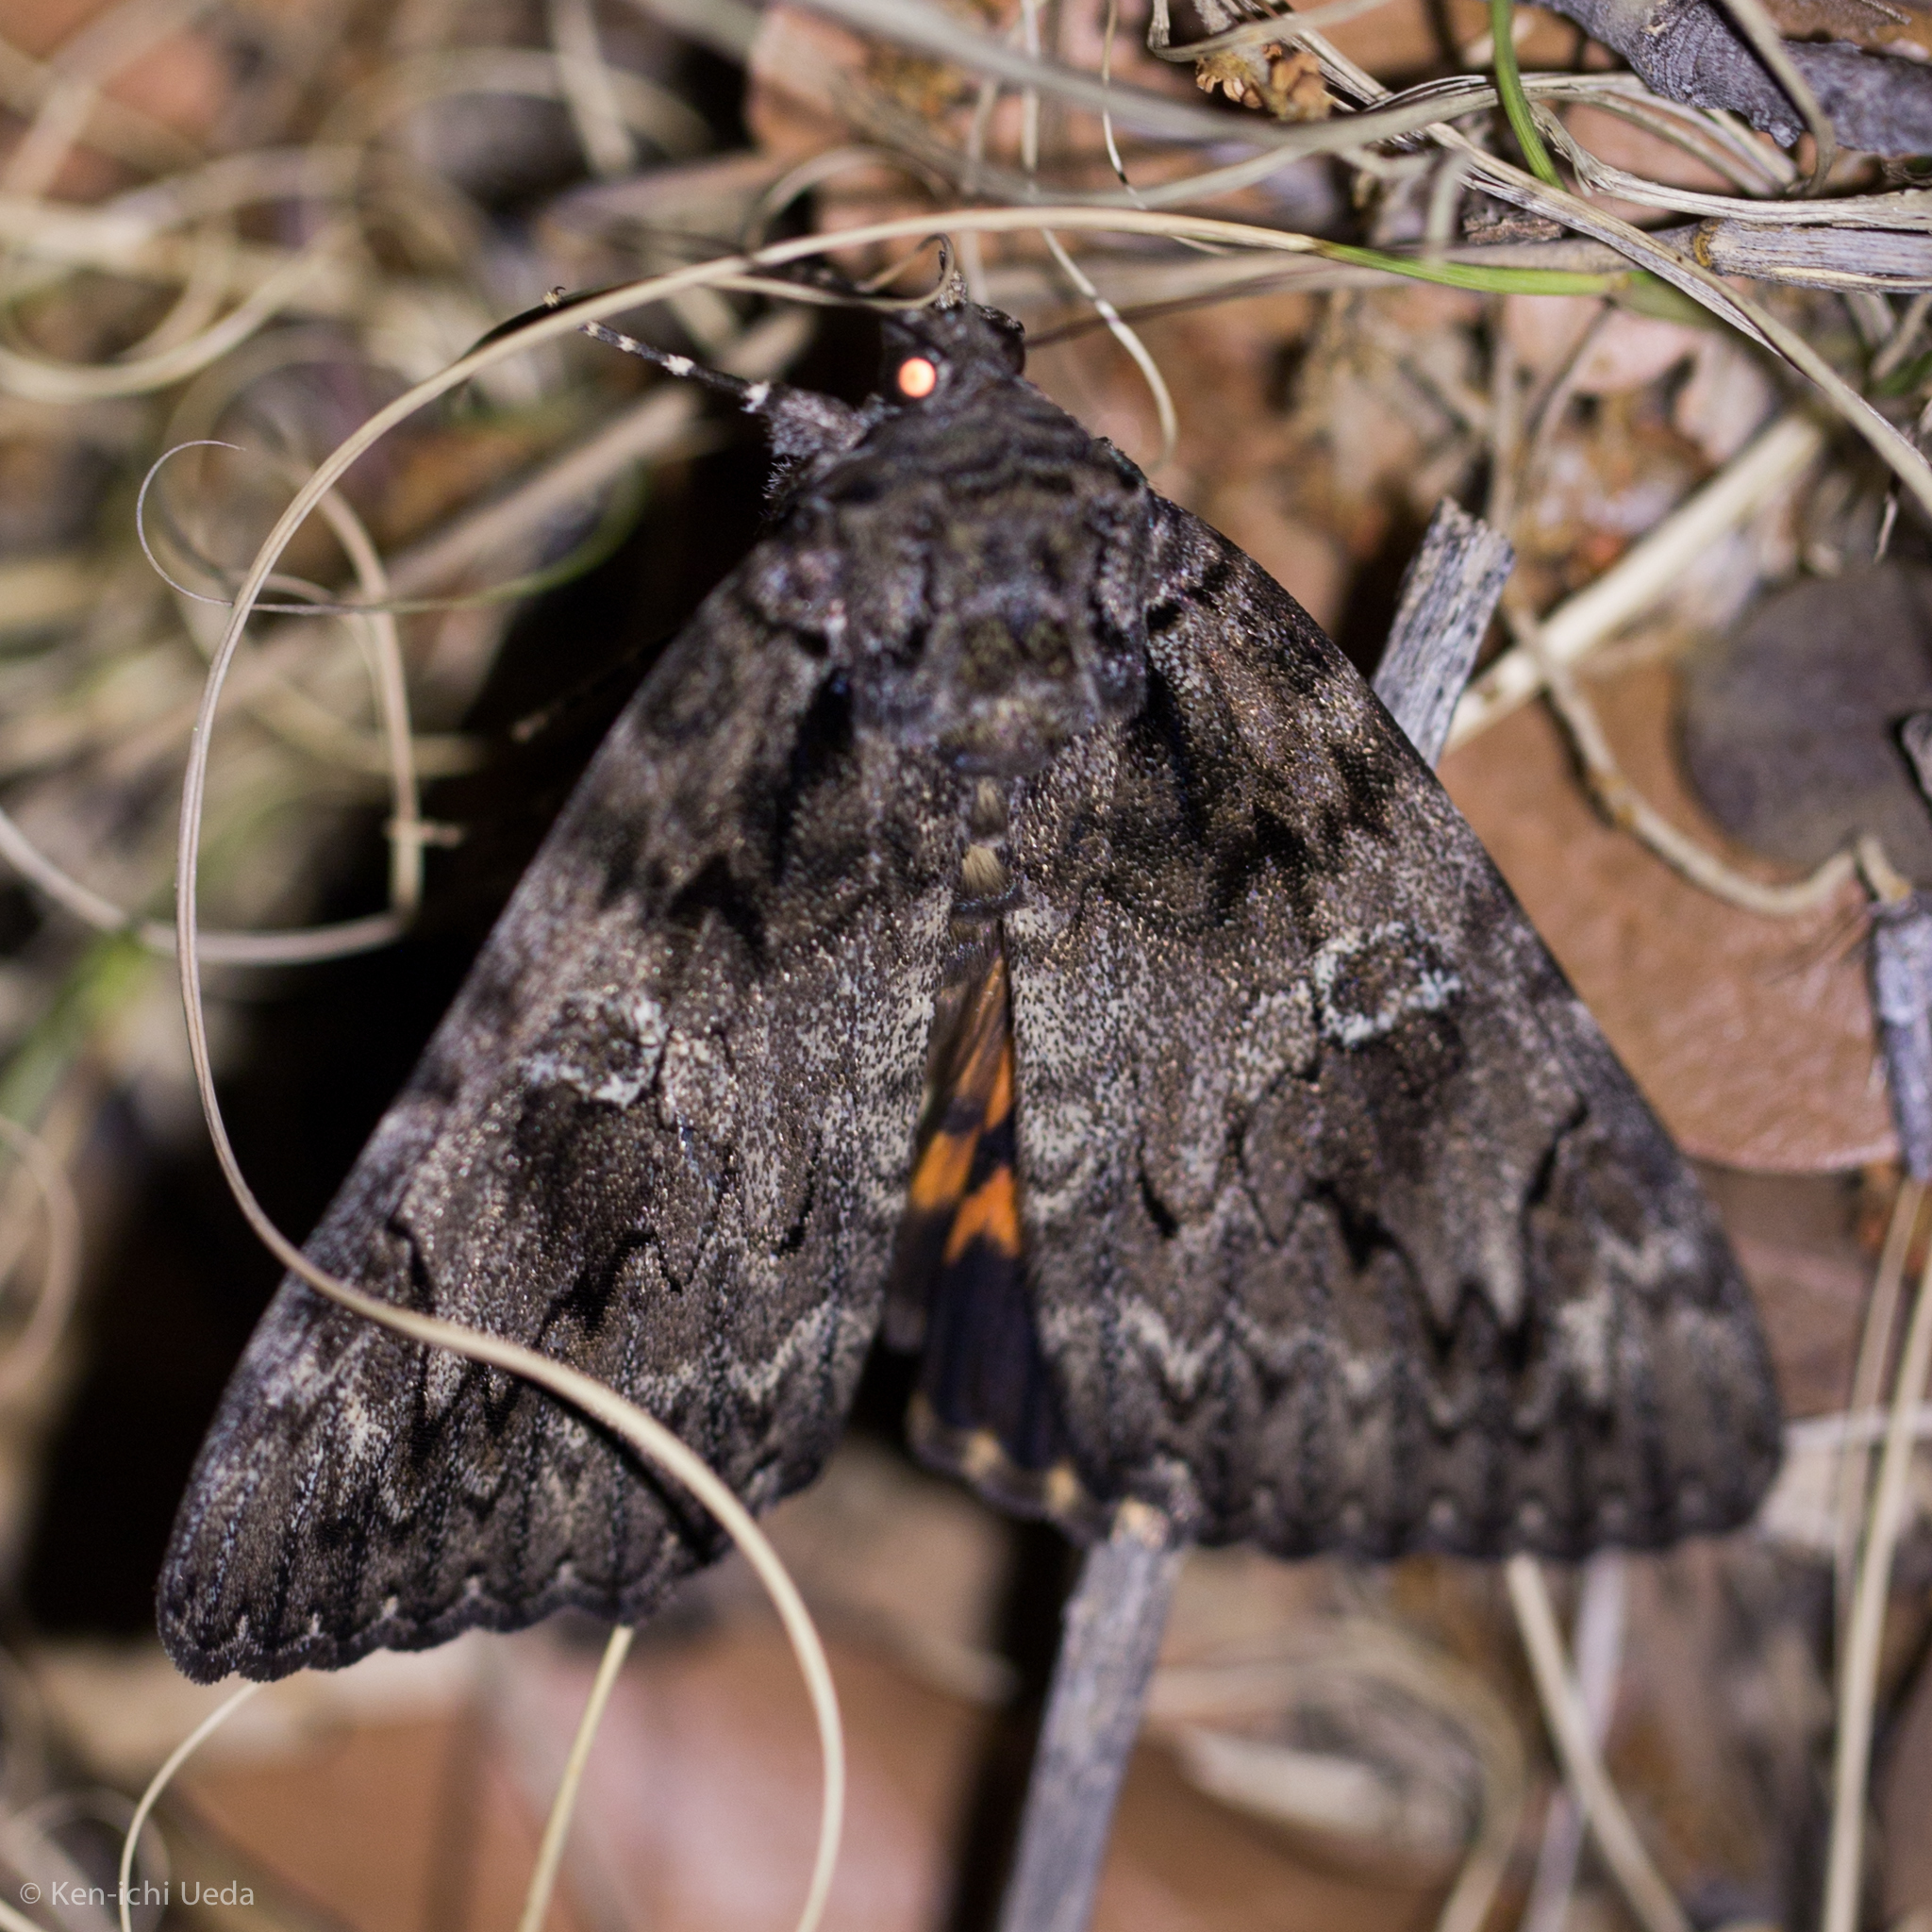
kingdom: Animalia
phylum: Arthropoda
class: Insecta
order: Lepidoptera
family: Erebidae
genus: Catocala
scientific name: Catocala ilia
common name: Ilia underwing
